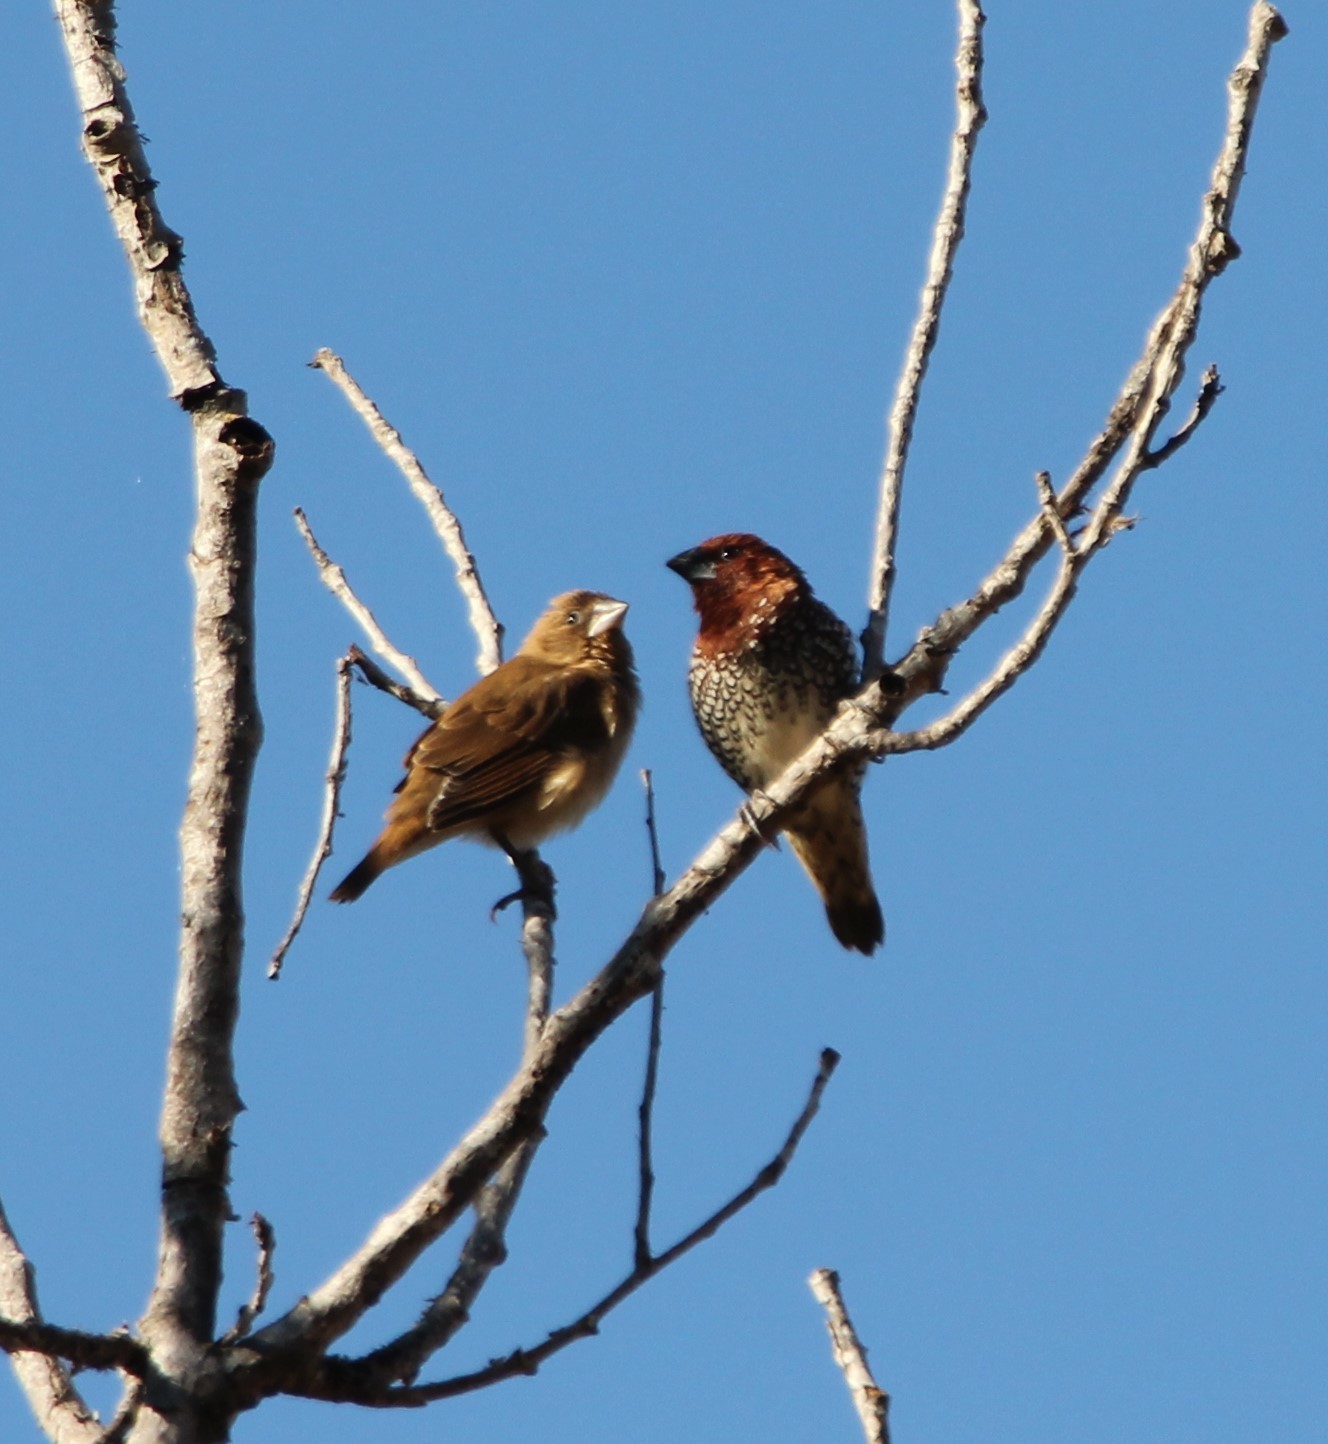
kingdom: Animalia
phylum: Chordata
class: Aves
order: Passeriformes
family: Estrildidae
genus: Lonchura
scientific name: Lonchura punctulata
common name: Scaly-breasted munia
